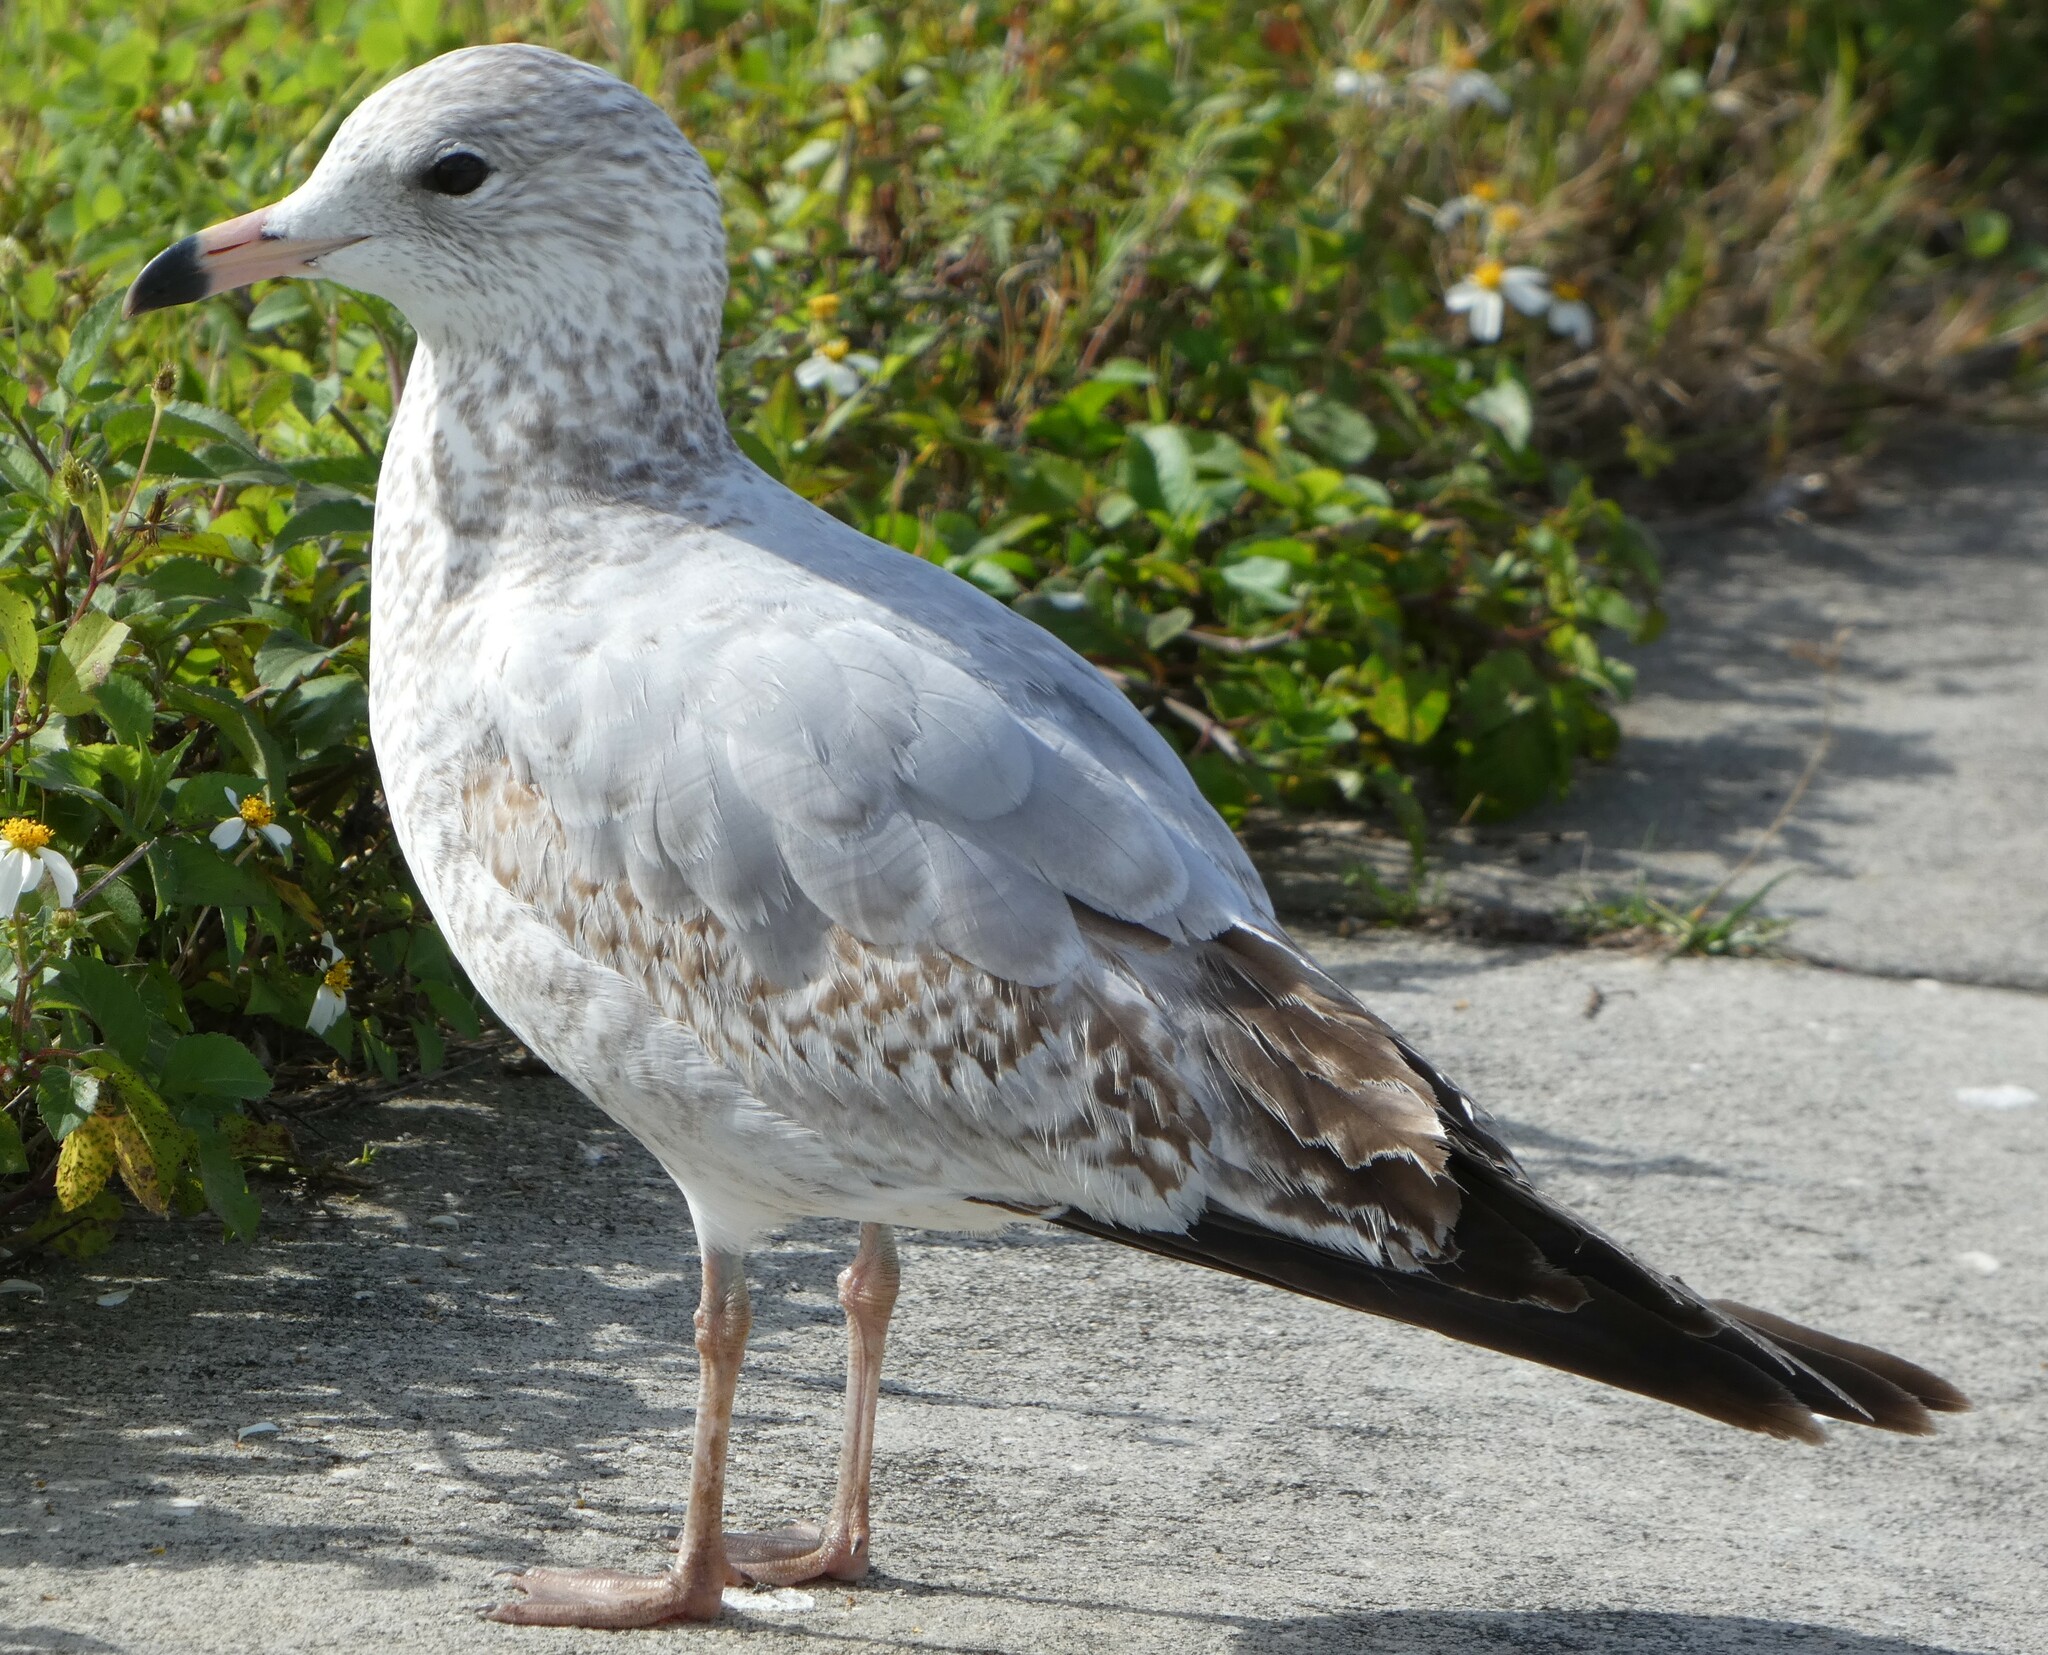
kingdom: Animalia
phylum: Chordata
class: Aves
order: Charadriiformes
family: Laridae
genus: Larus
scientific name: Larus delawarensis
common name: Ring-billed gull
